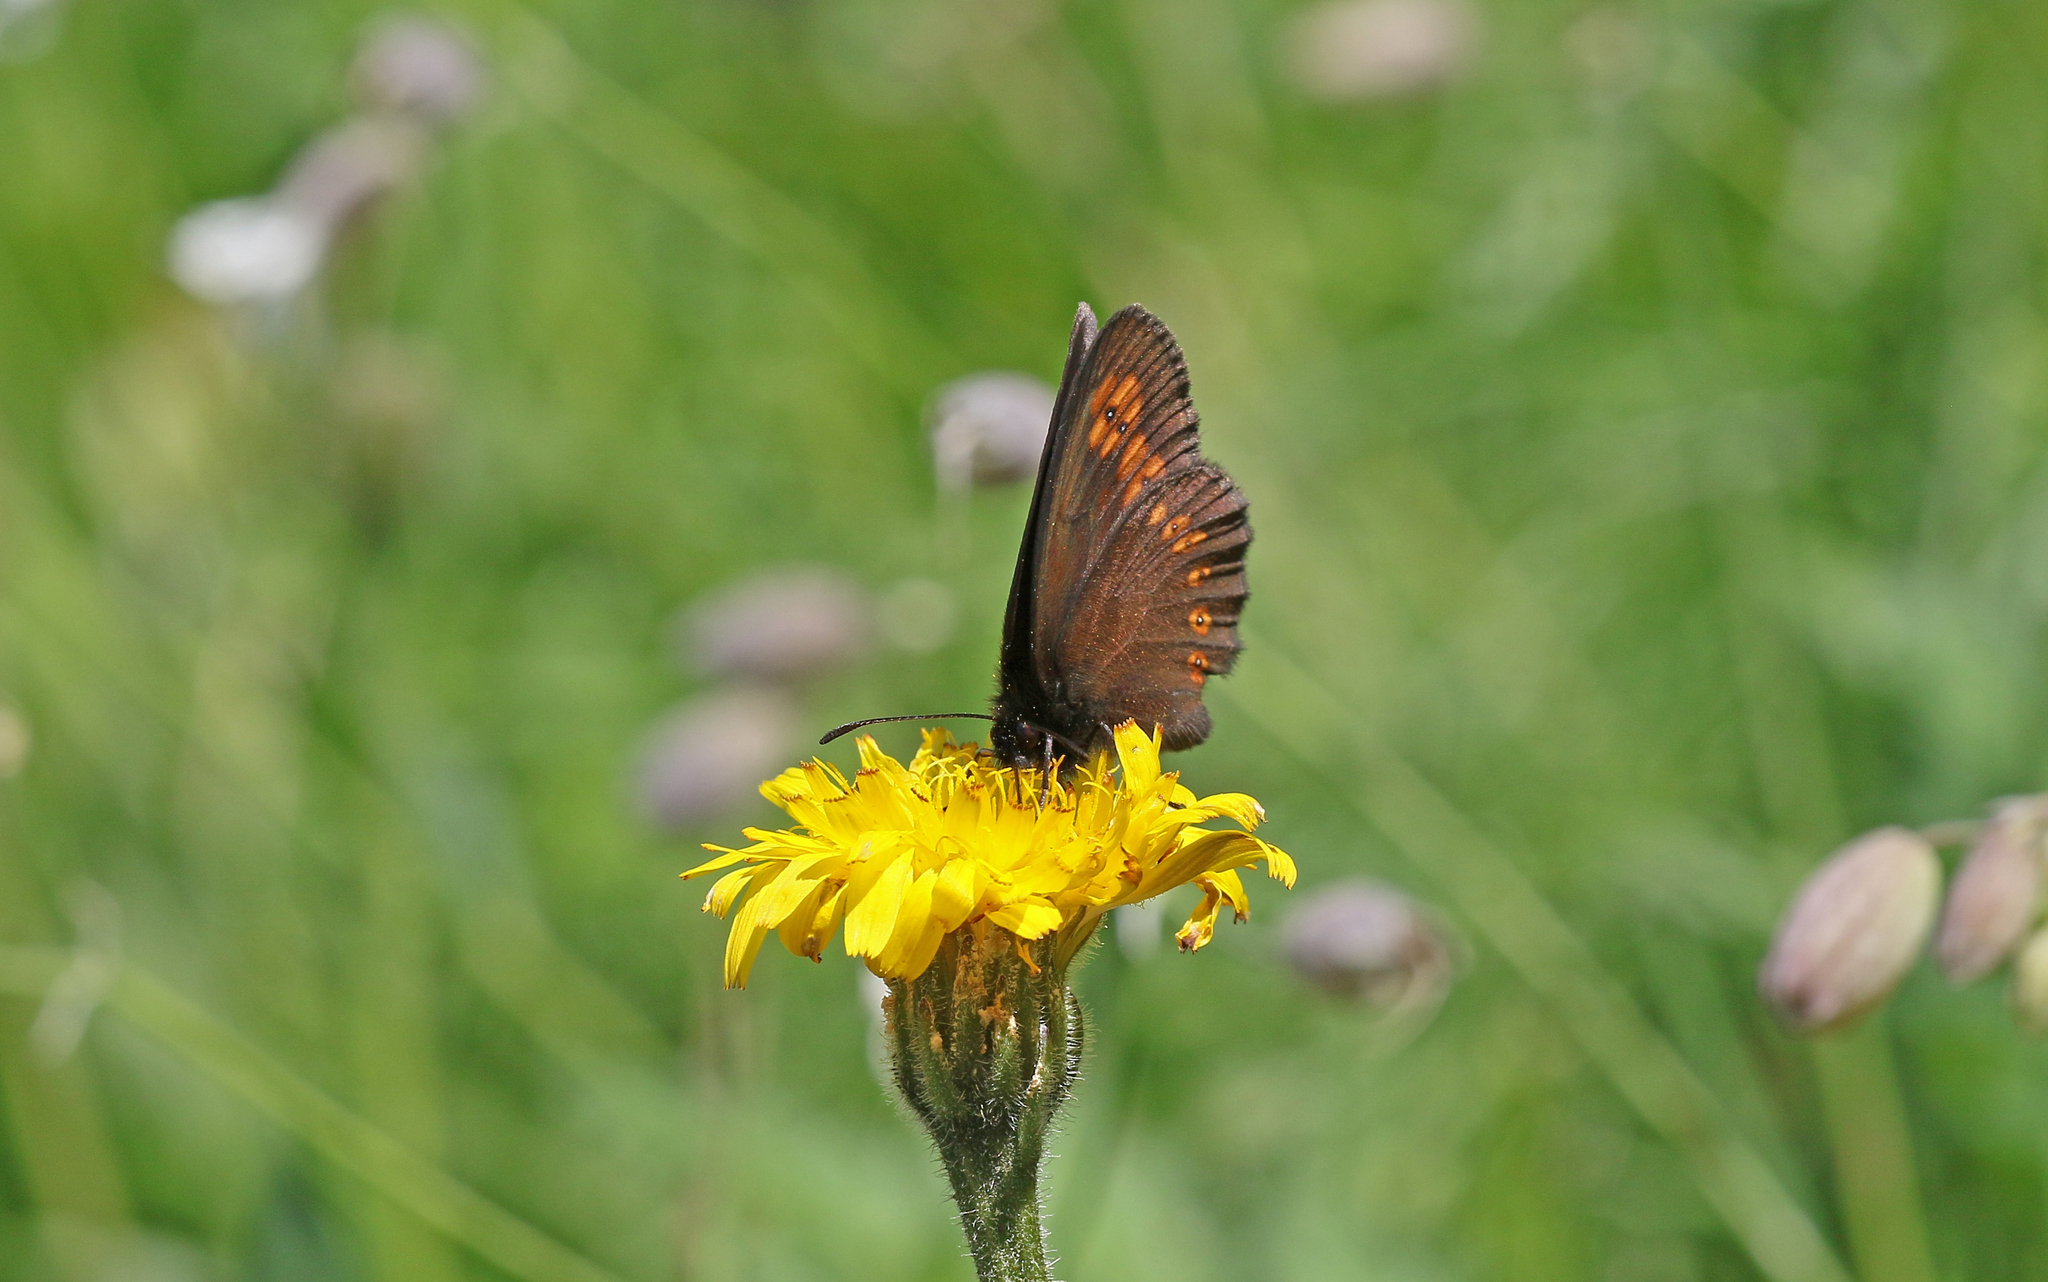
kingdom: Animalia
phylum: Arthropoda
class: Insecta
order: Lepidoptera
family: Nymphalidae
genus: Erebia
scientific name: Erebia alberganus
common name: Almond-eyed ringlet
